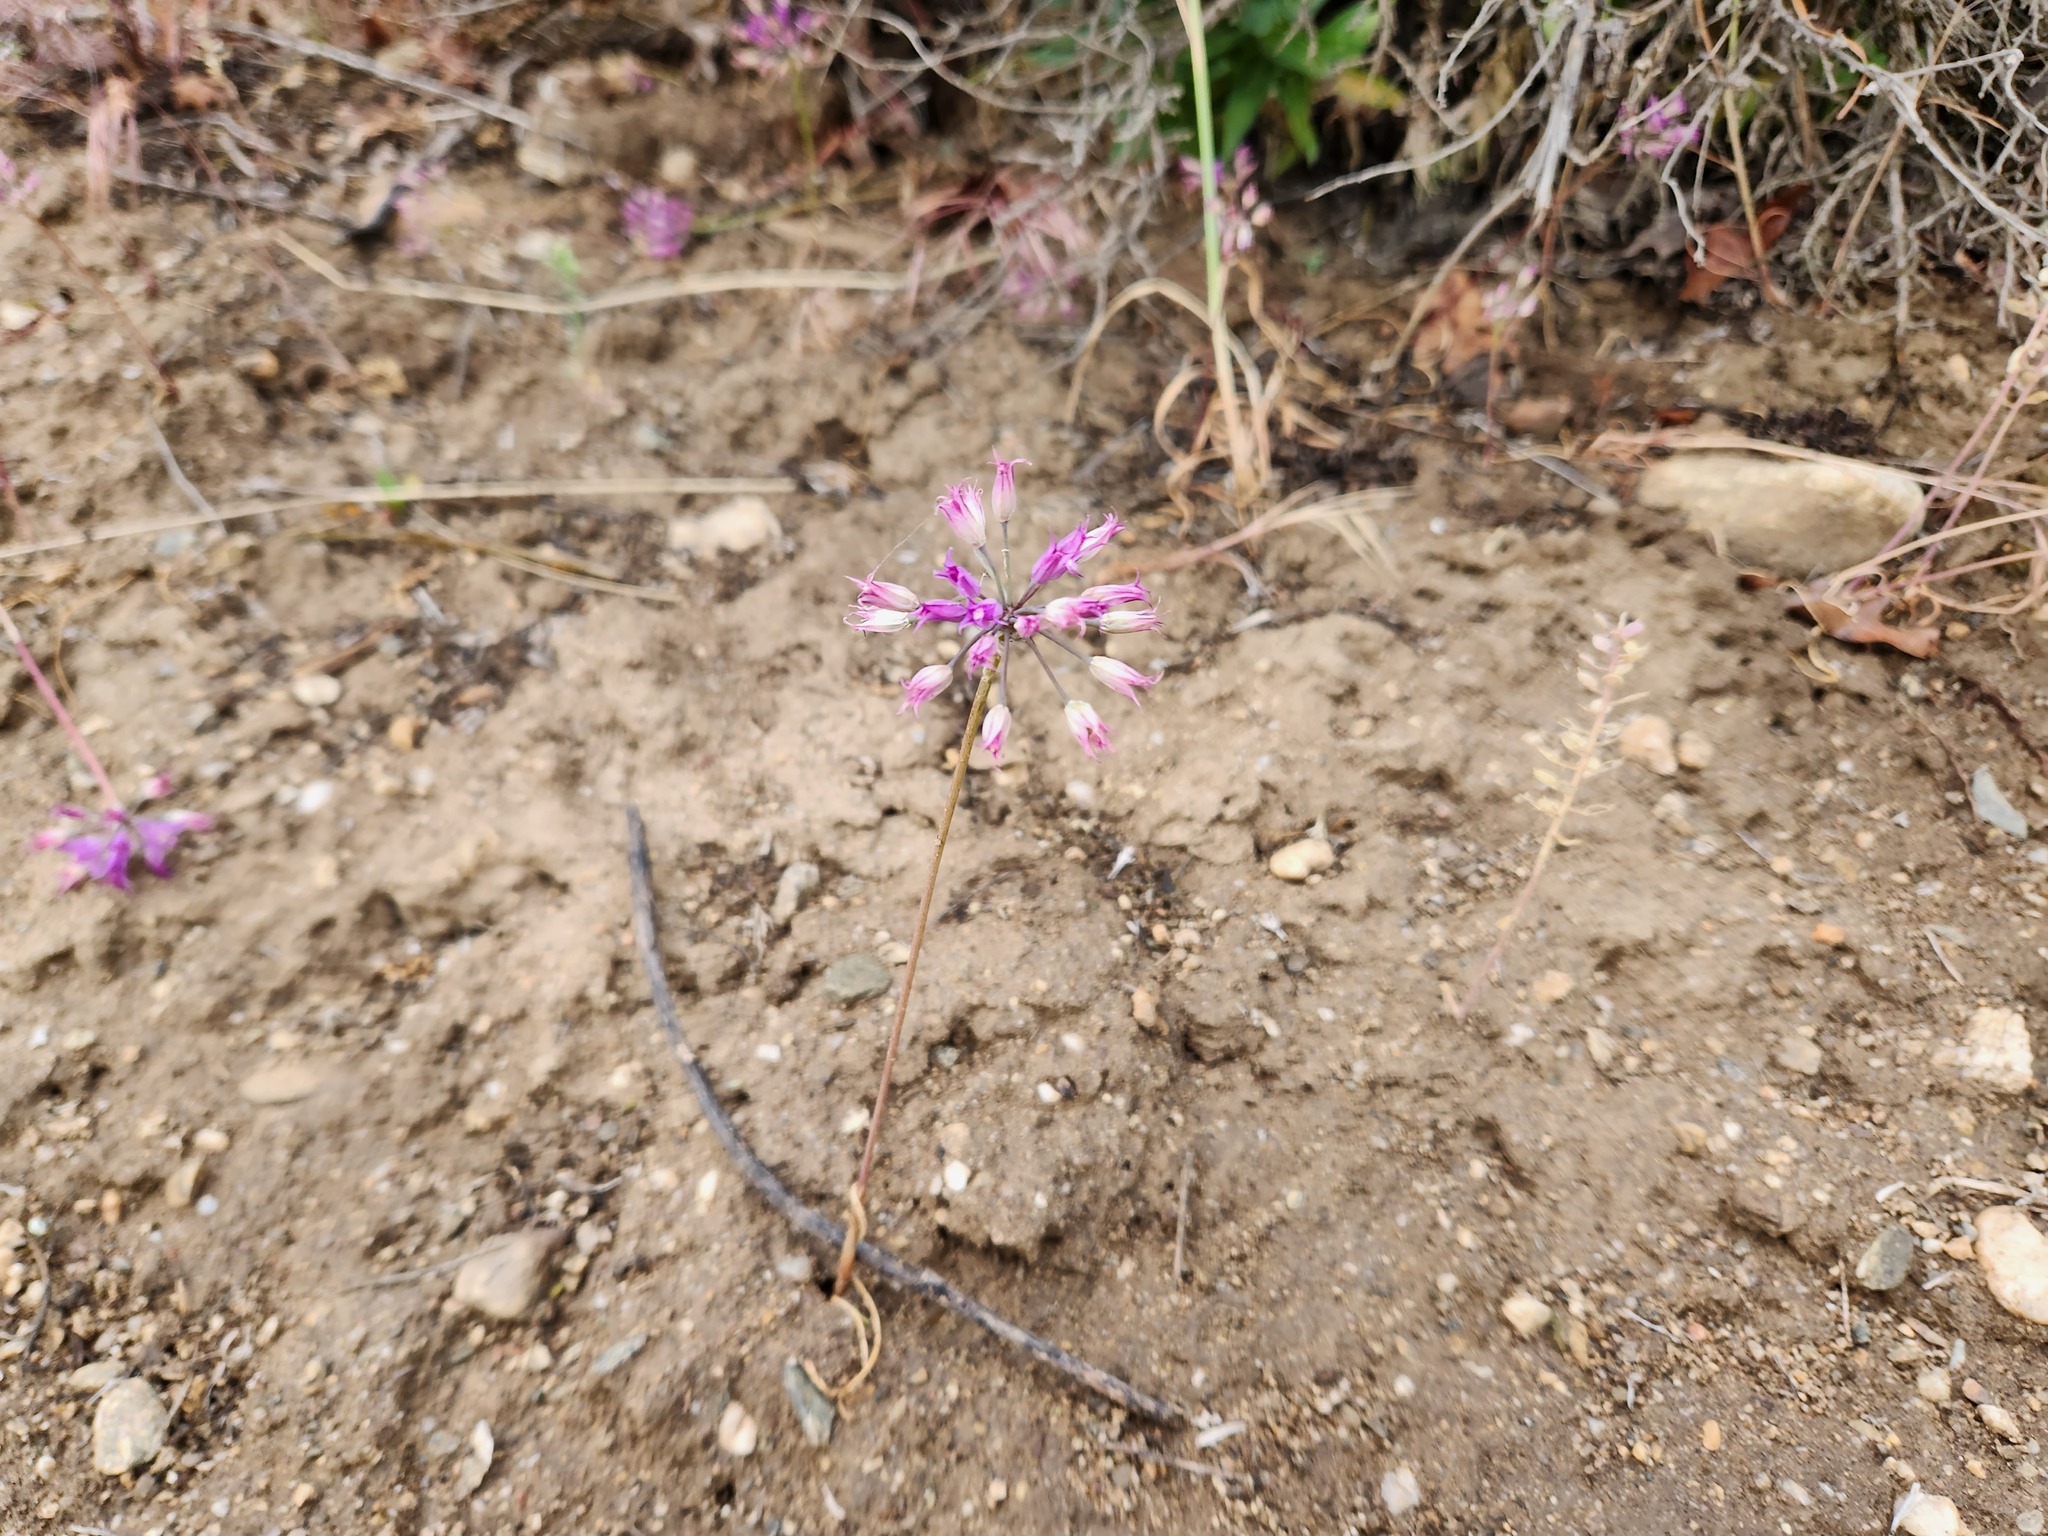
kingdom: Plantae
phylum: Tracheophyta
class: Liliopsida
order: Asparagales
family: Amaryllidaceae
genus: Allium
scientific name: Allium acuminatum
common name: Hooker's onion
